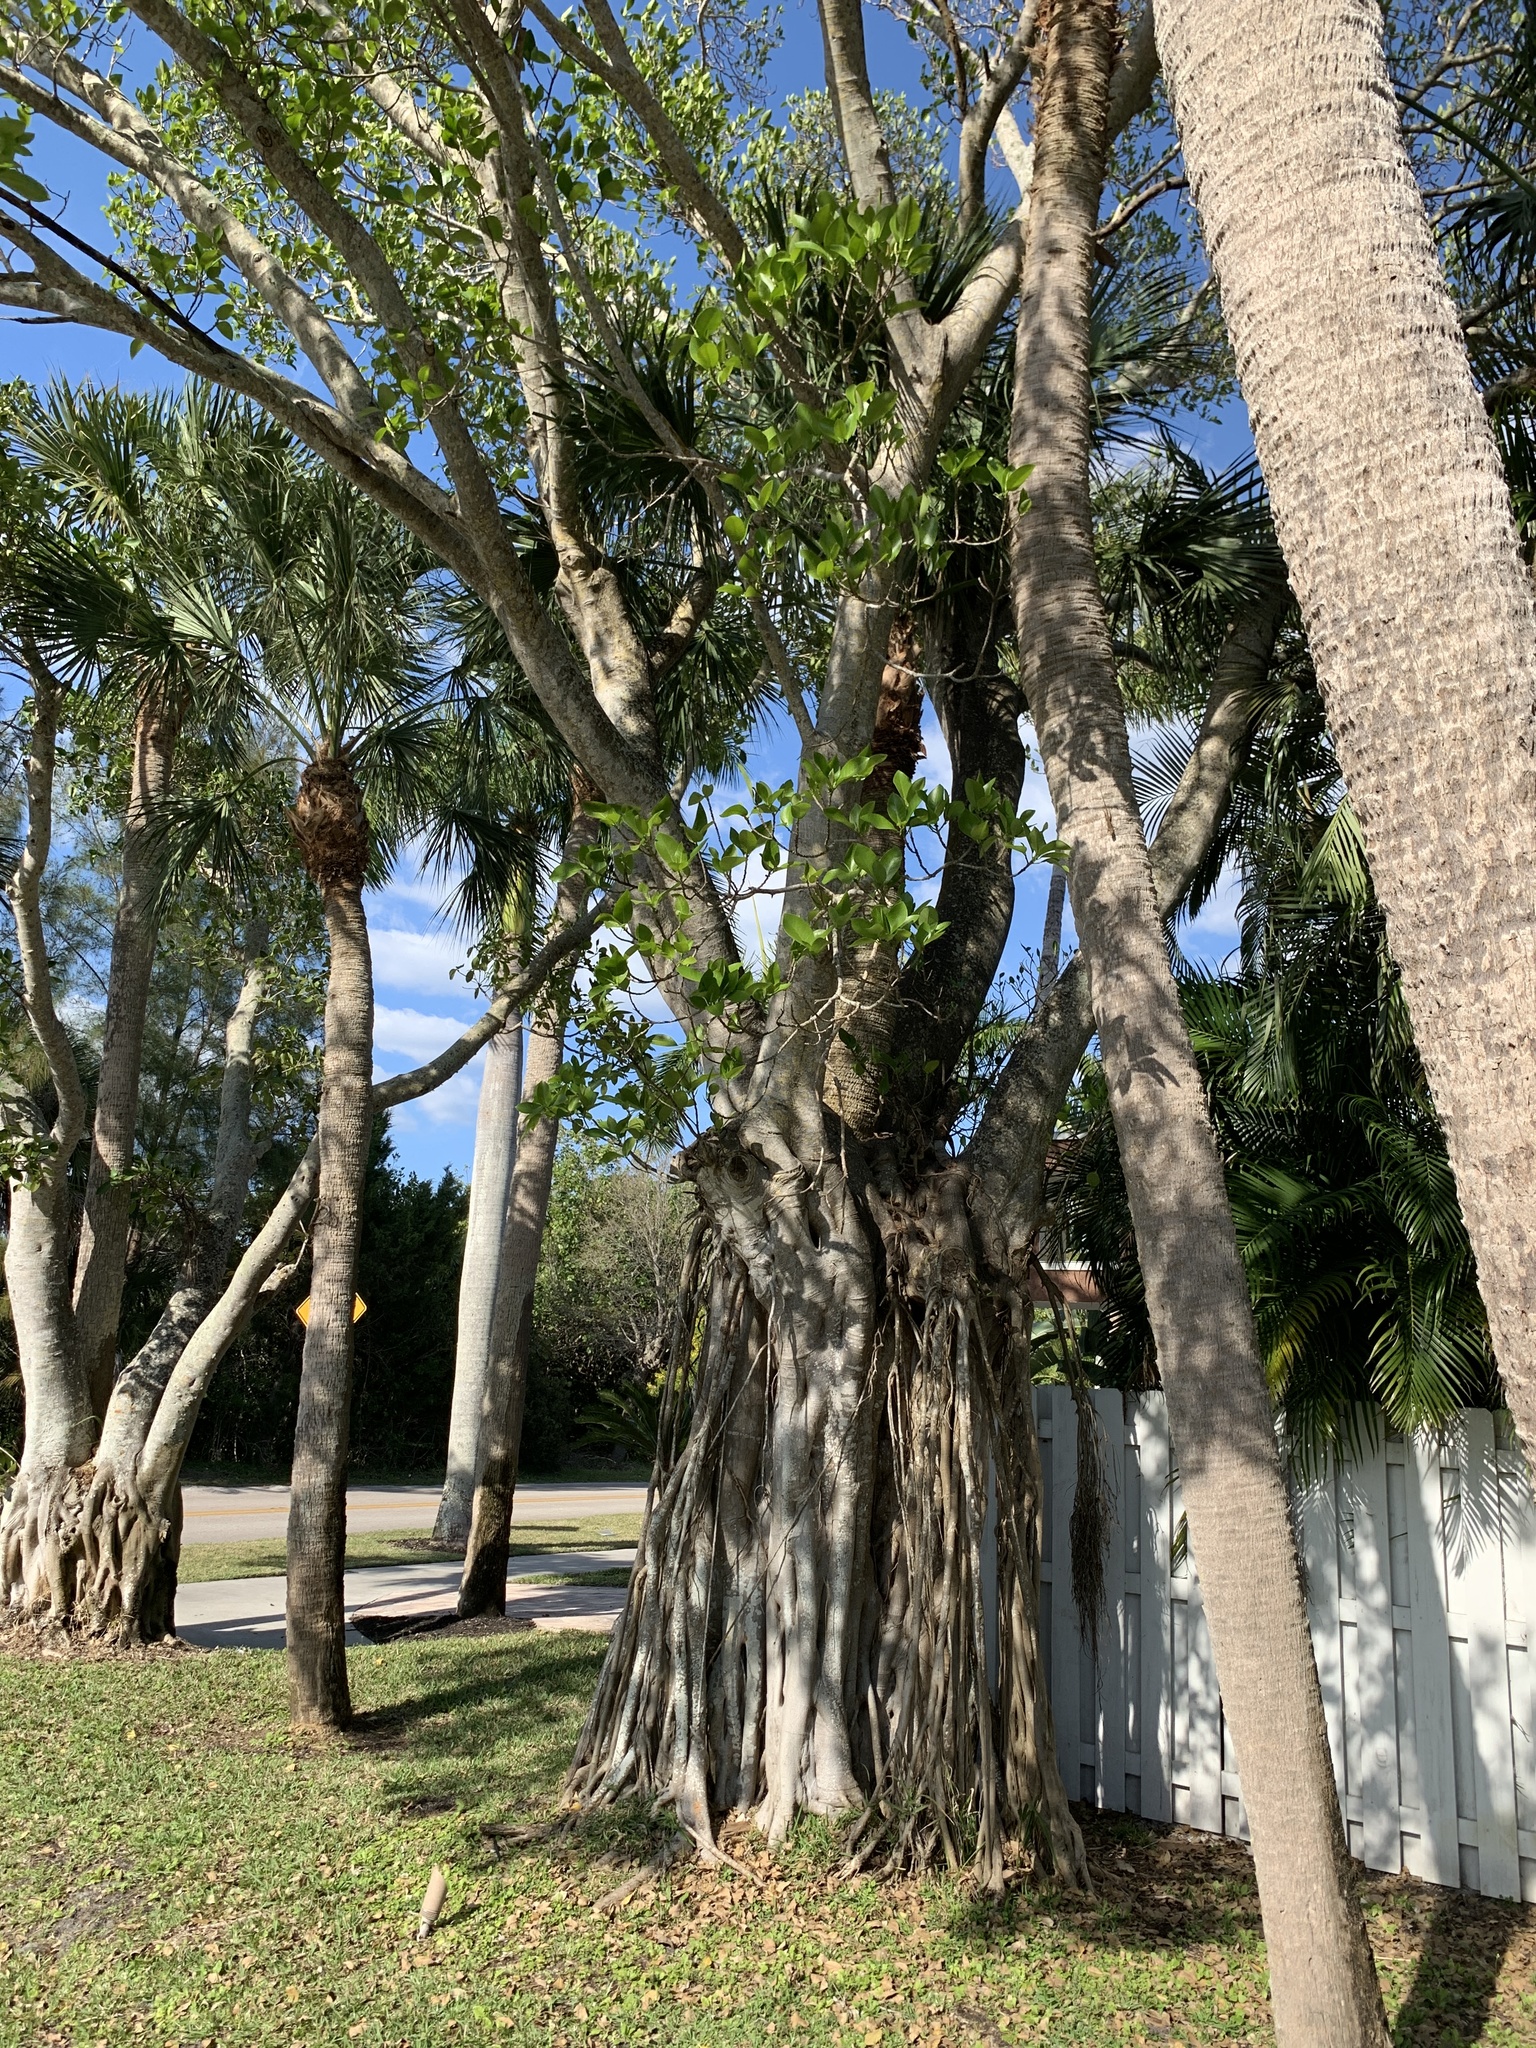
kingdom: Plantae
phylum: Tracheophyta
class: Magnoliopsida
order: Rosales
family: Moraceae
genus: Ficus
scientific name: Ficus aurea
